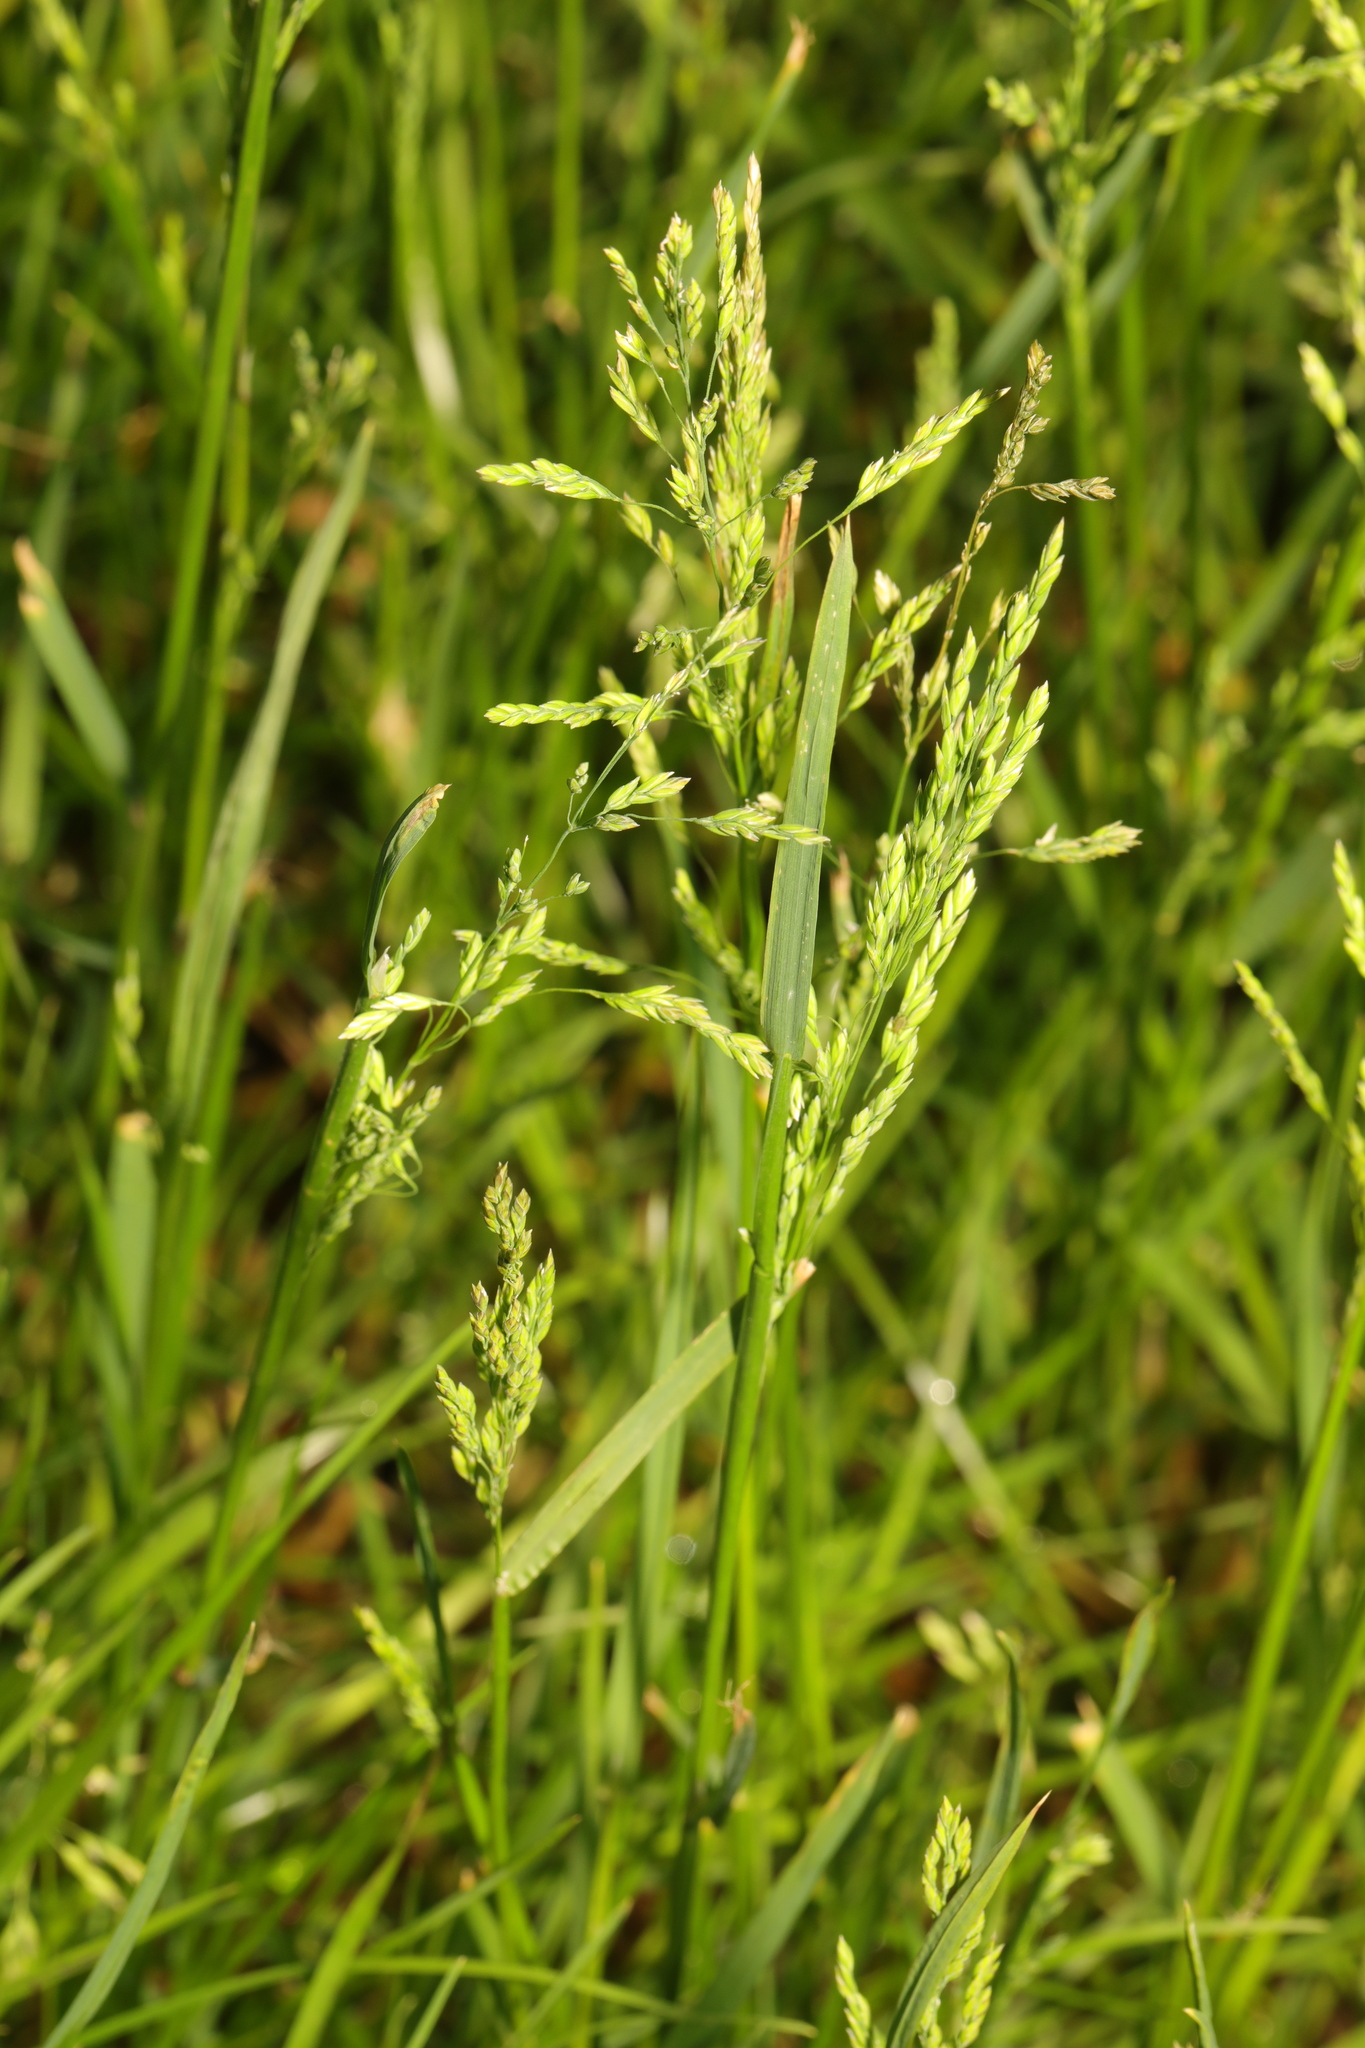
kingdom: Plantae
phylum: Tracheophyta
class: Liliopsida
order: Poales
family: Poaceae
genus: Poa
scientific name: Poa trivialis
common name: Rough bluegrass
